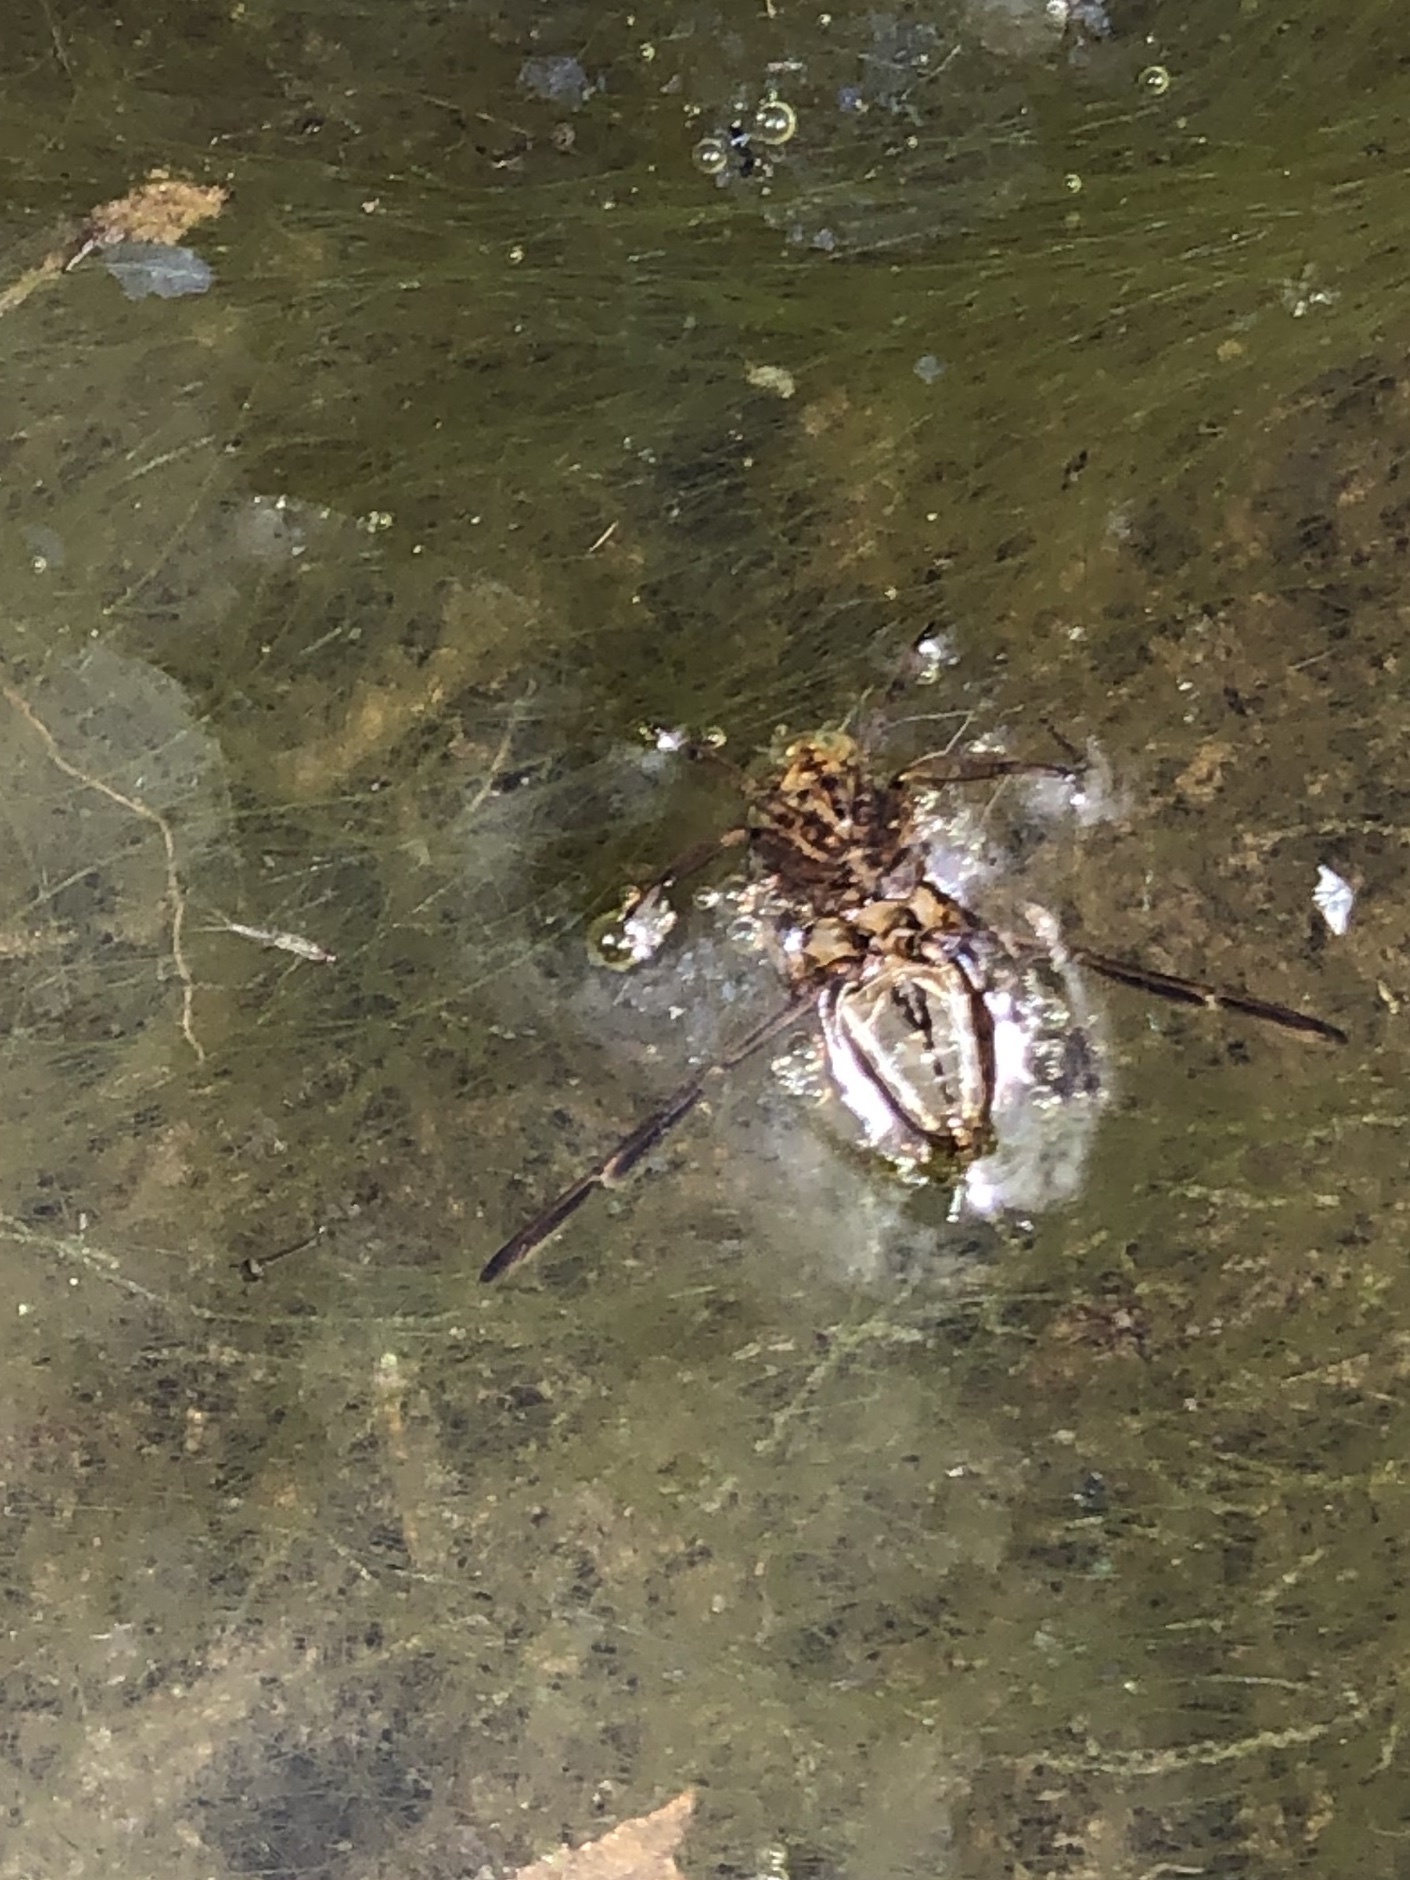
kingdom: Animalia
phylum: Arthropoda
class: Insecta
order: Hemiptera
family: Notonectidae
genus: Notonecta
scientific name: Notonecta
